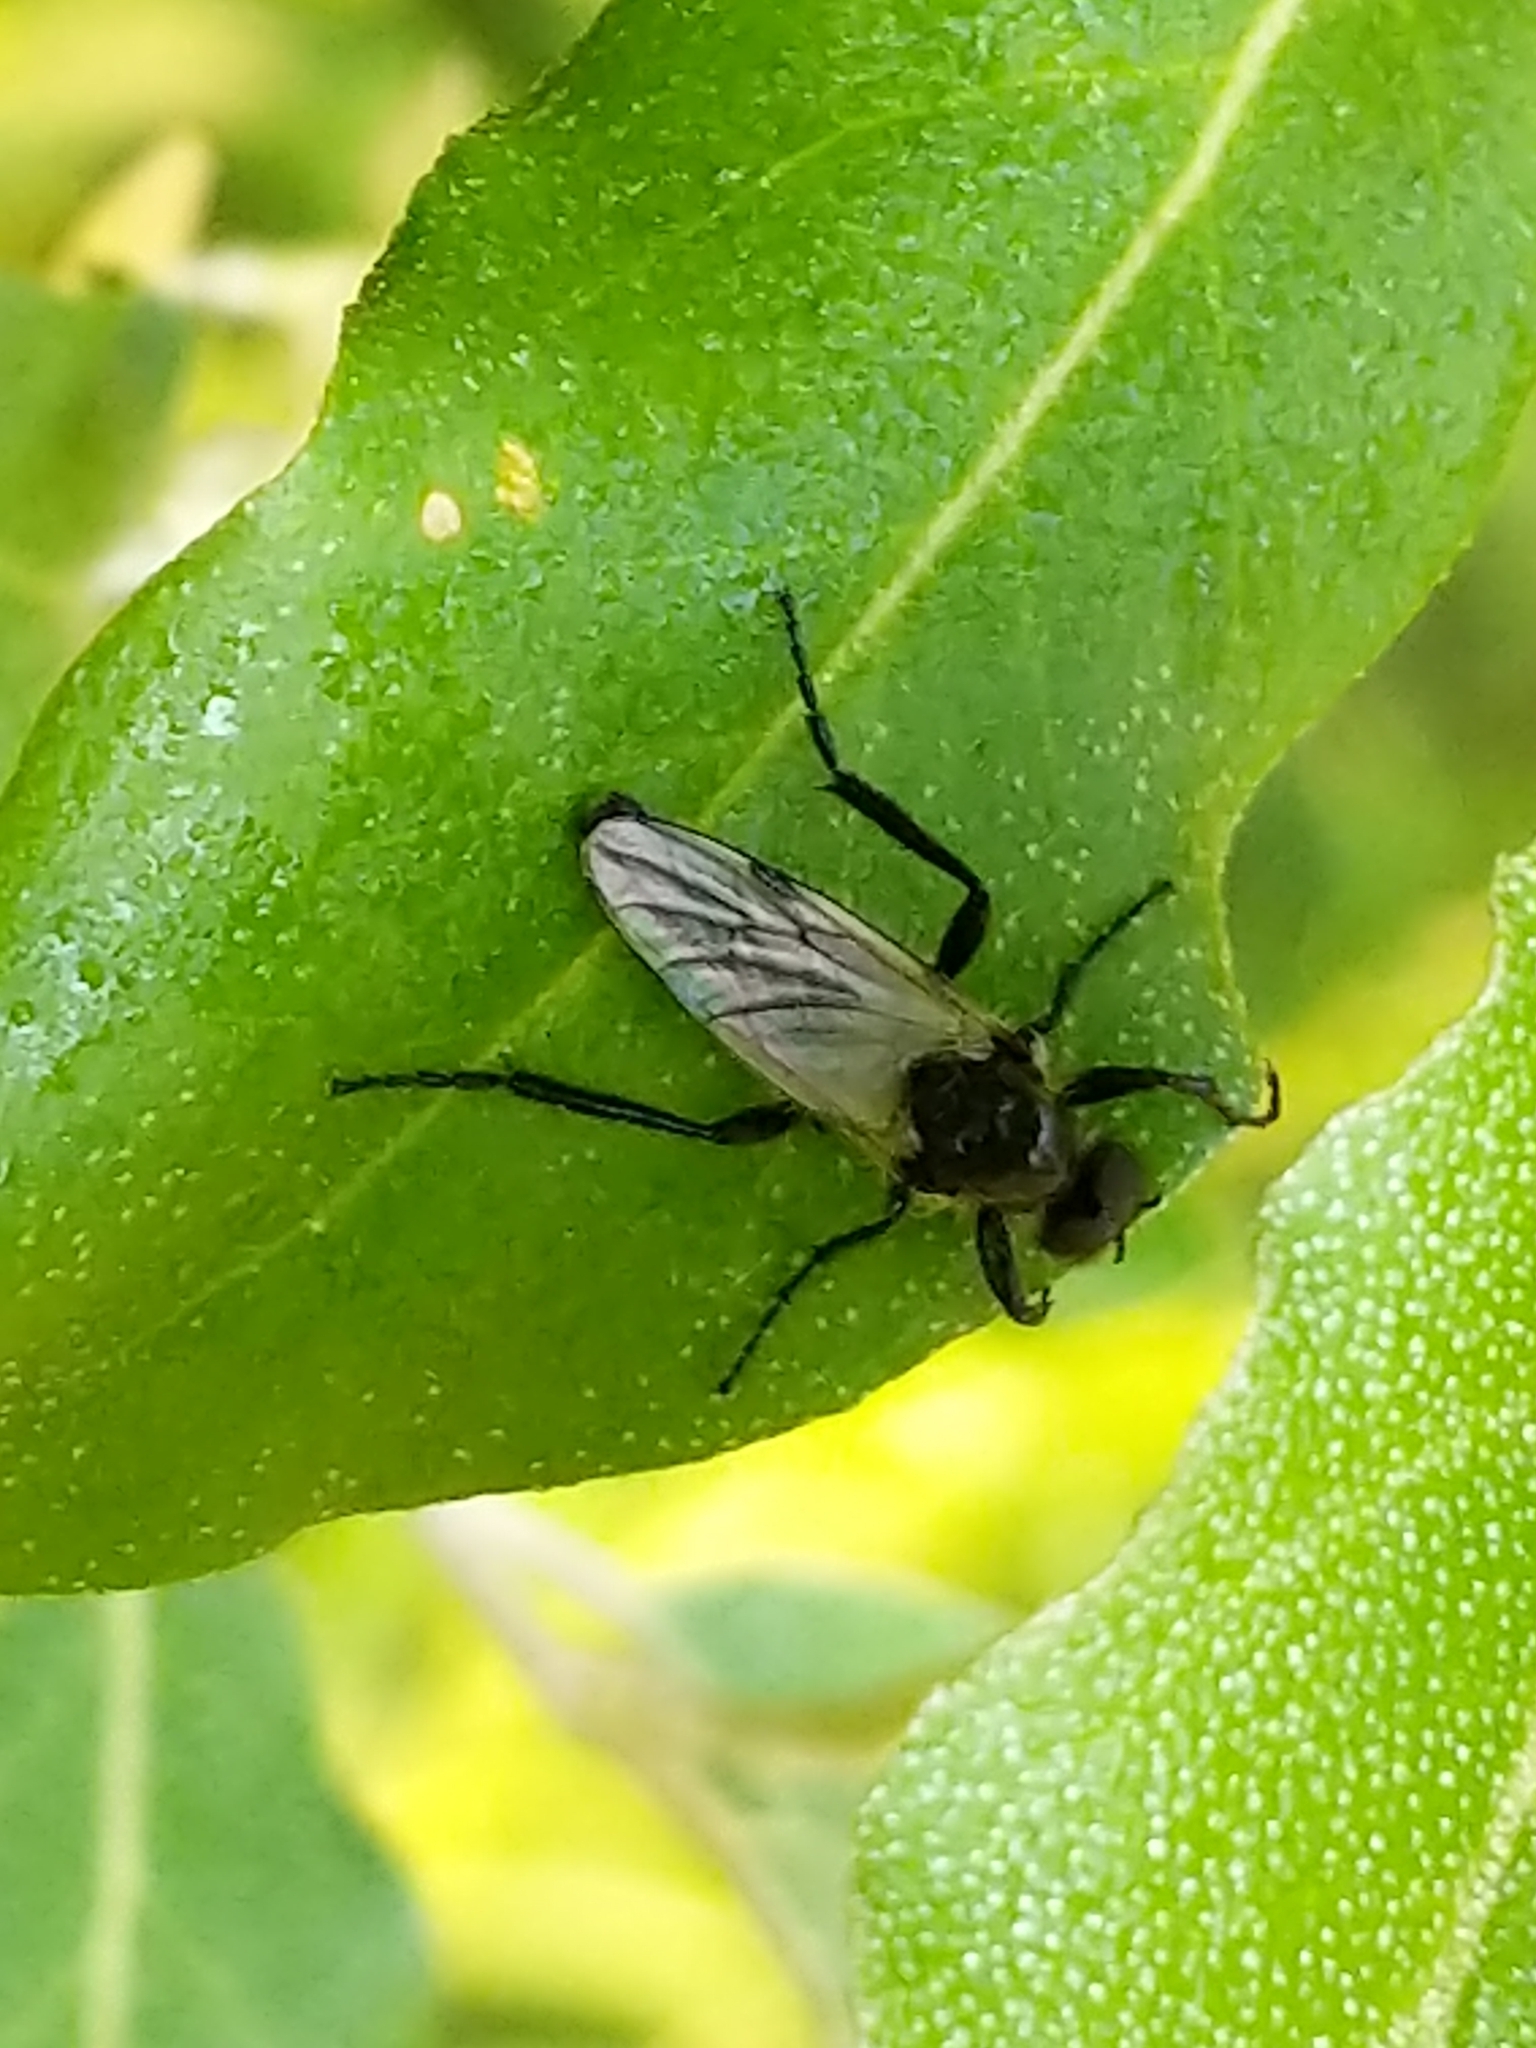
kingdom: Animalia
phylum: Arthropoda
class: Insecta
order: Diptera
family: Bibionidae
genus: Bibio
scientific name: Bibio albipennis
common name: White-winged march fly
